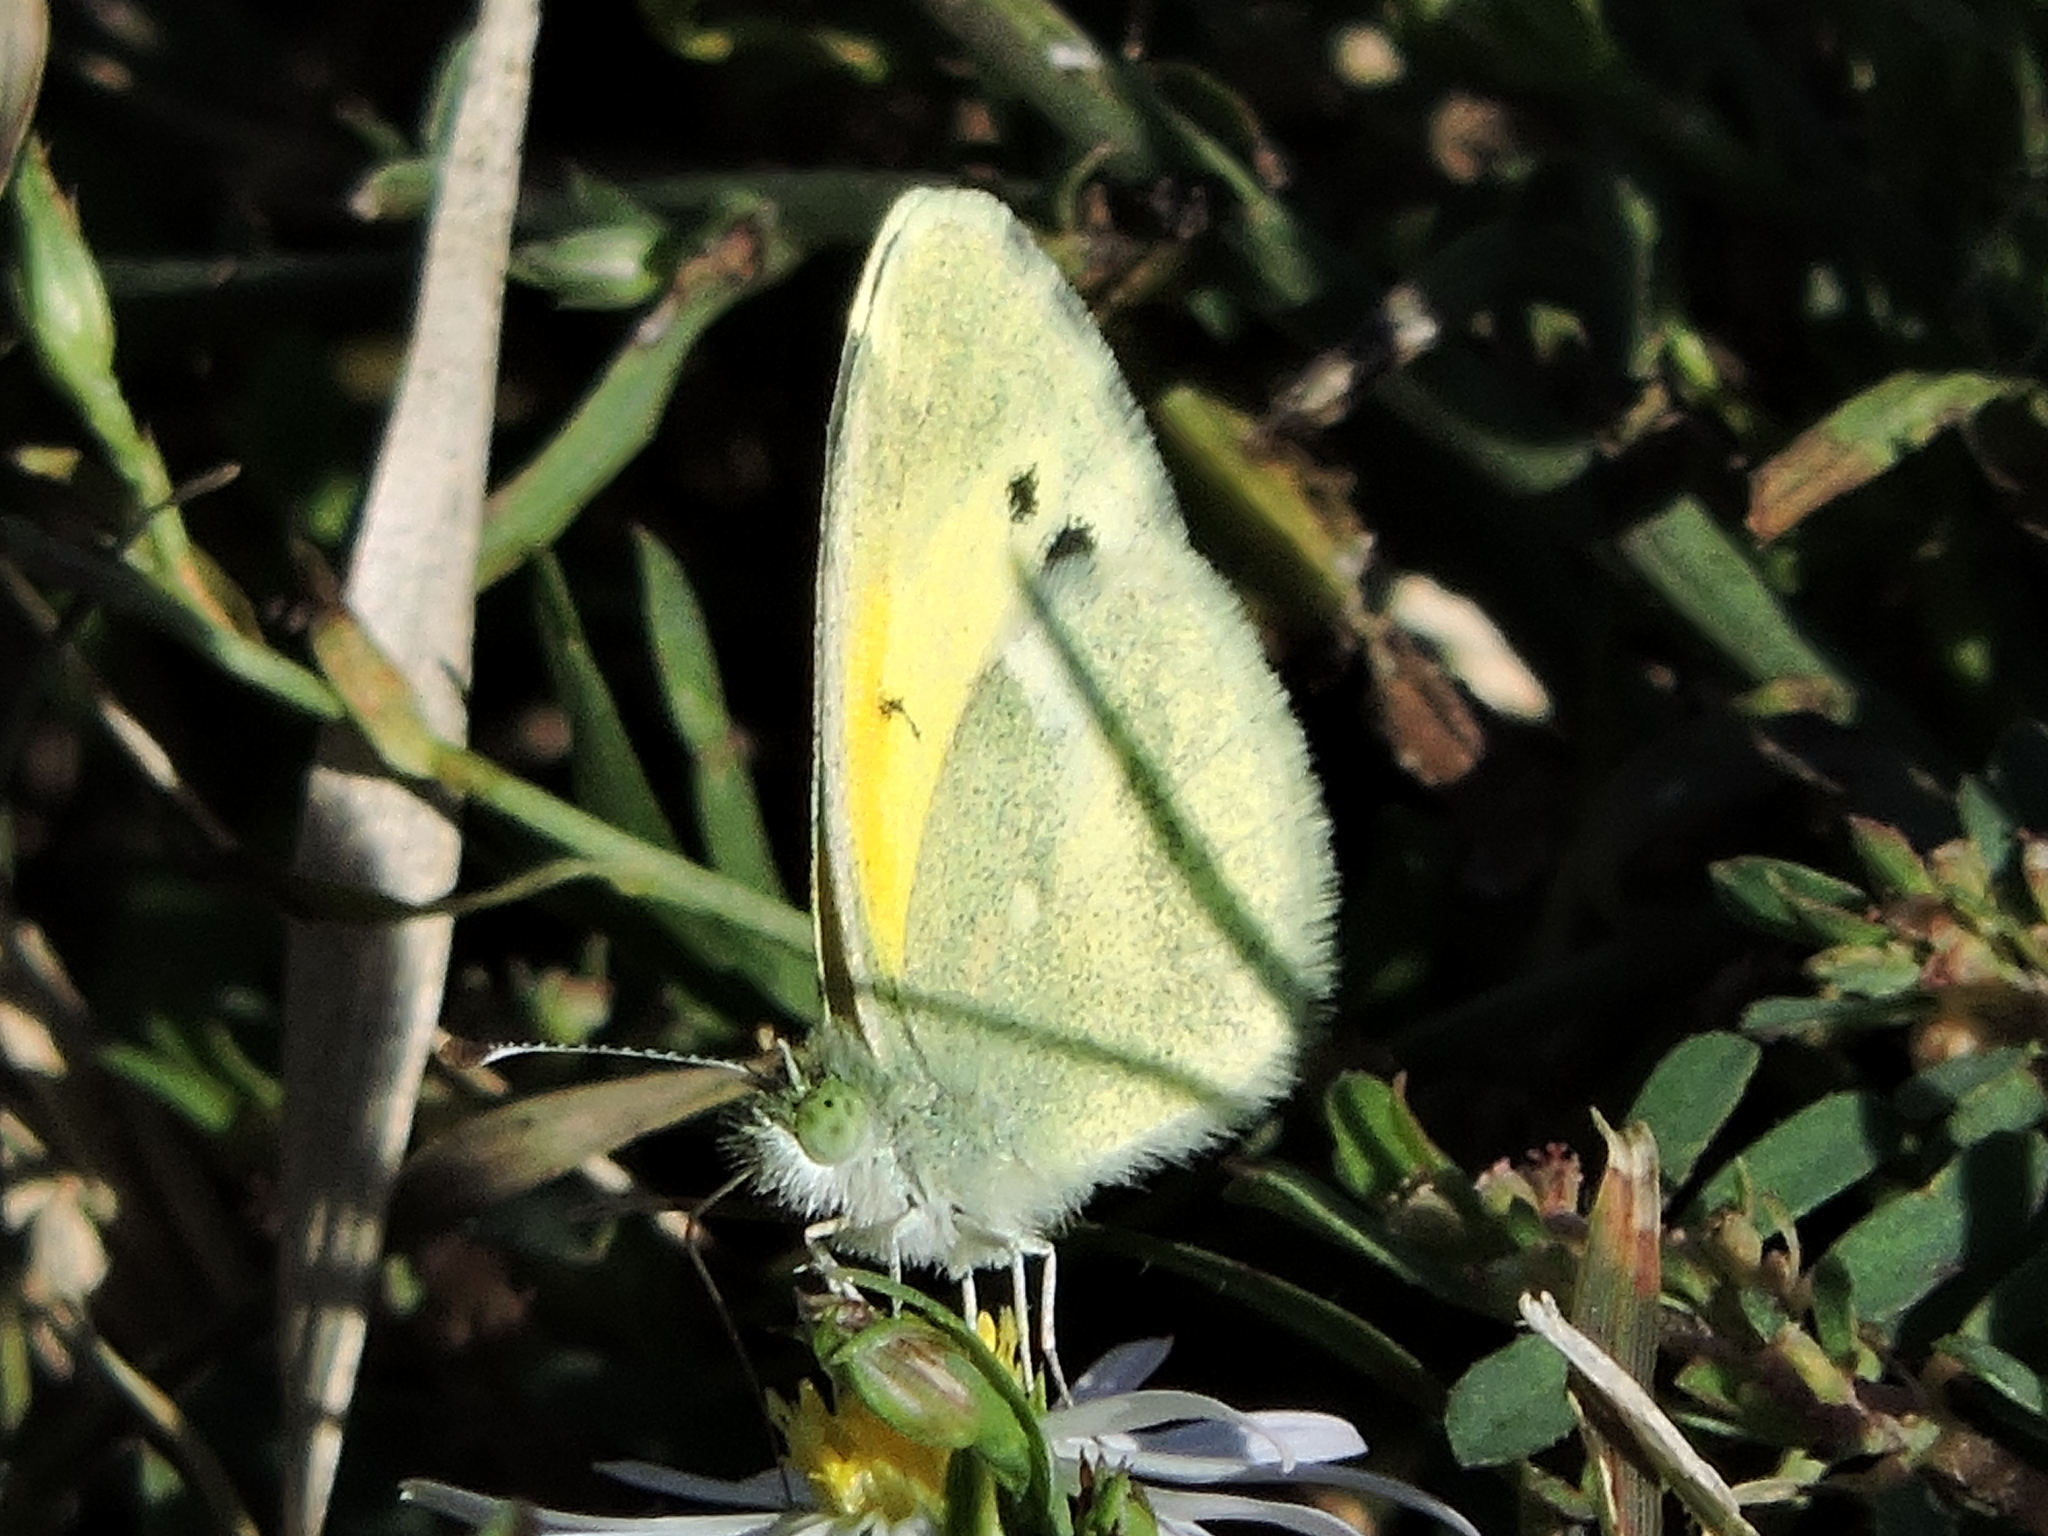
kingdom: Animalia
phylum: Arthropoda
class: Insecta
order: Lepidoptera
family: Pieridae
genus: Nathalis
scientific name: Nathalis iole
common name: Dainty sulphur
